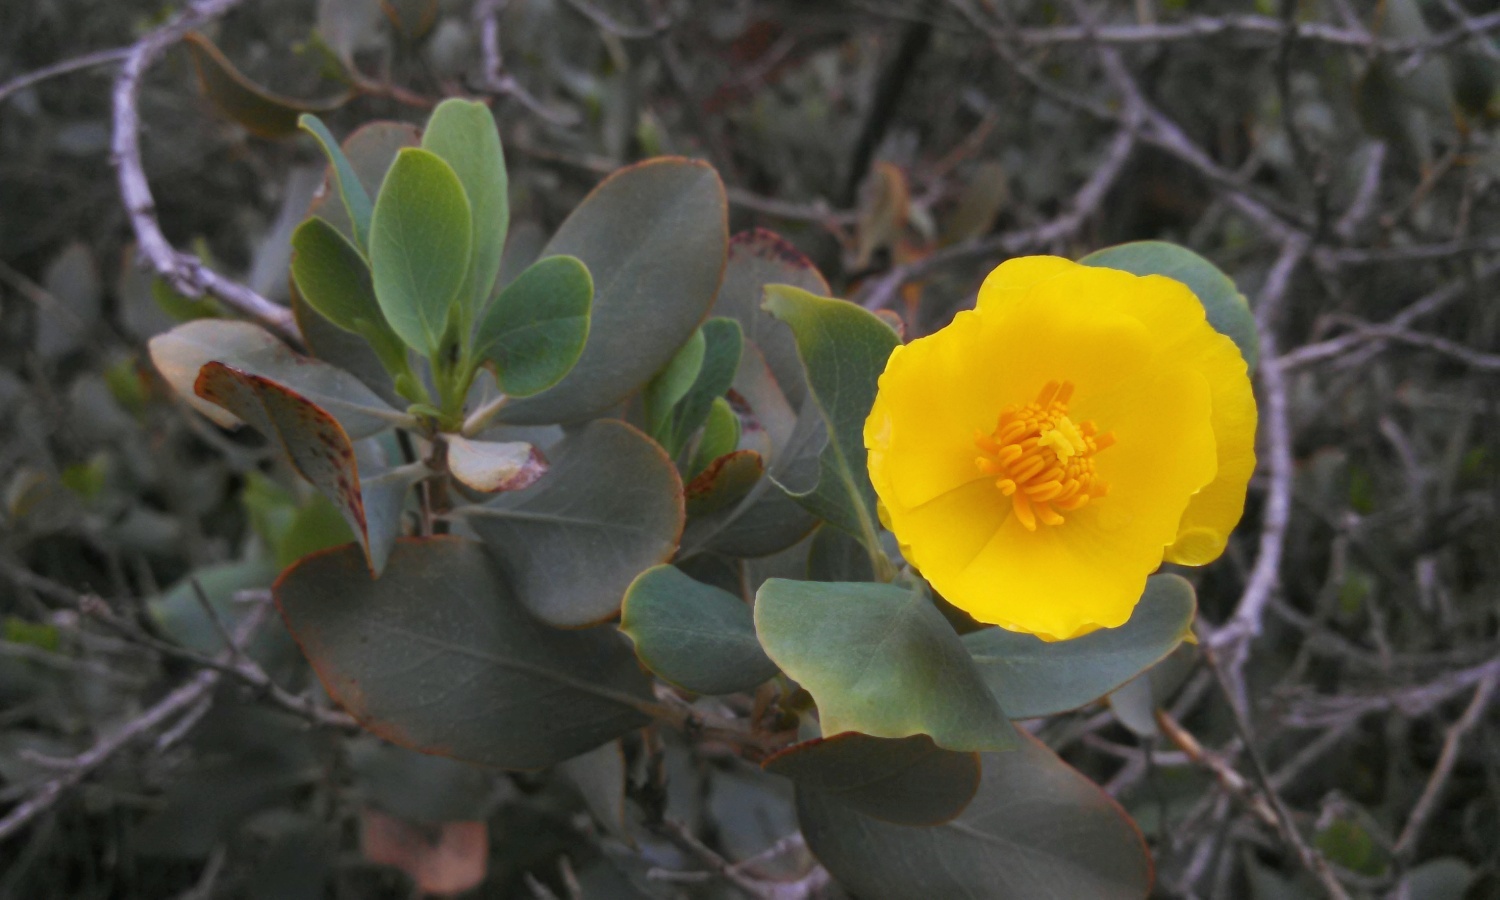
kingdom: Plantae
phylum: Tracheophyta
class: Magnoliopsida
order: Ranunculales
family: Papaveraceae
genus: Dendromecon
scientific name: Dendromecon harfordii
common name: Island tree-poppy
